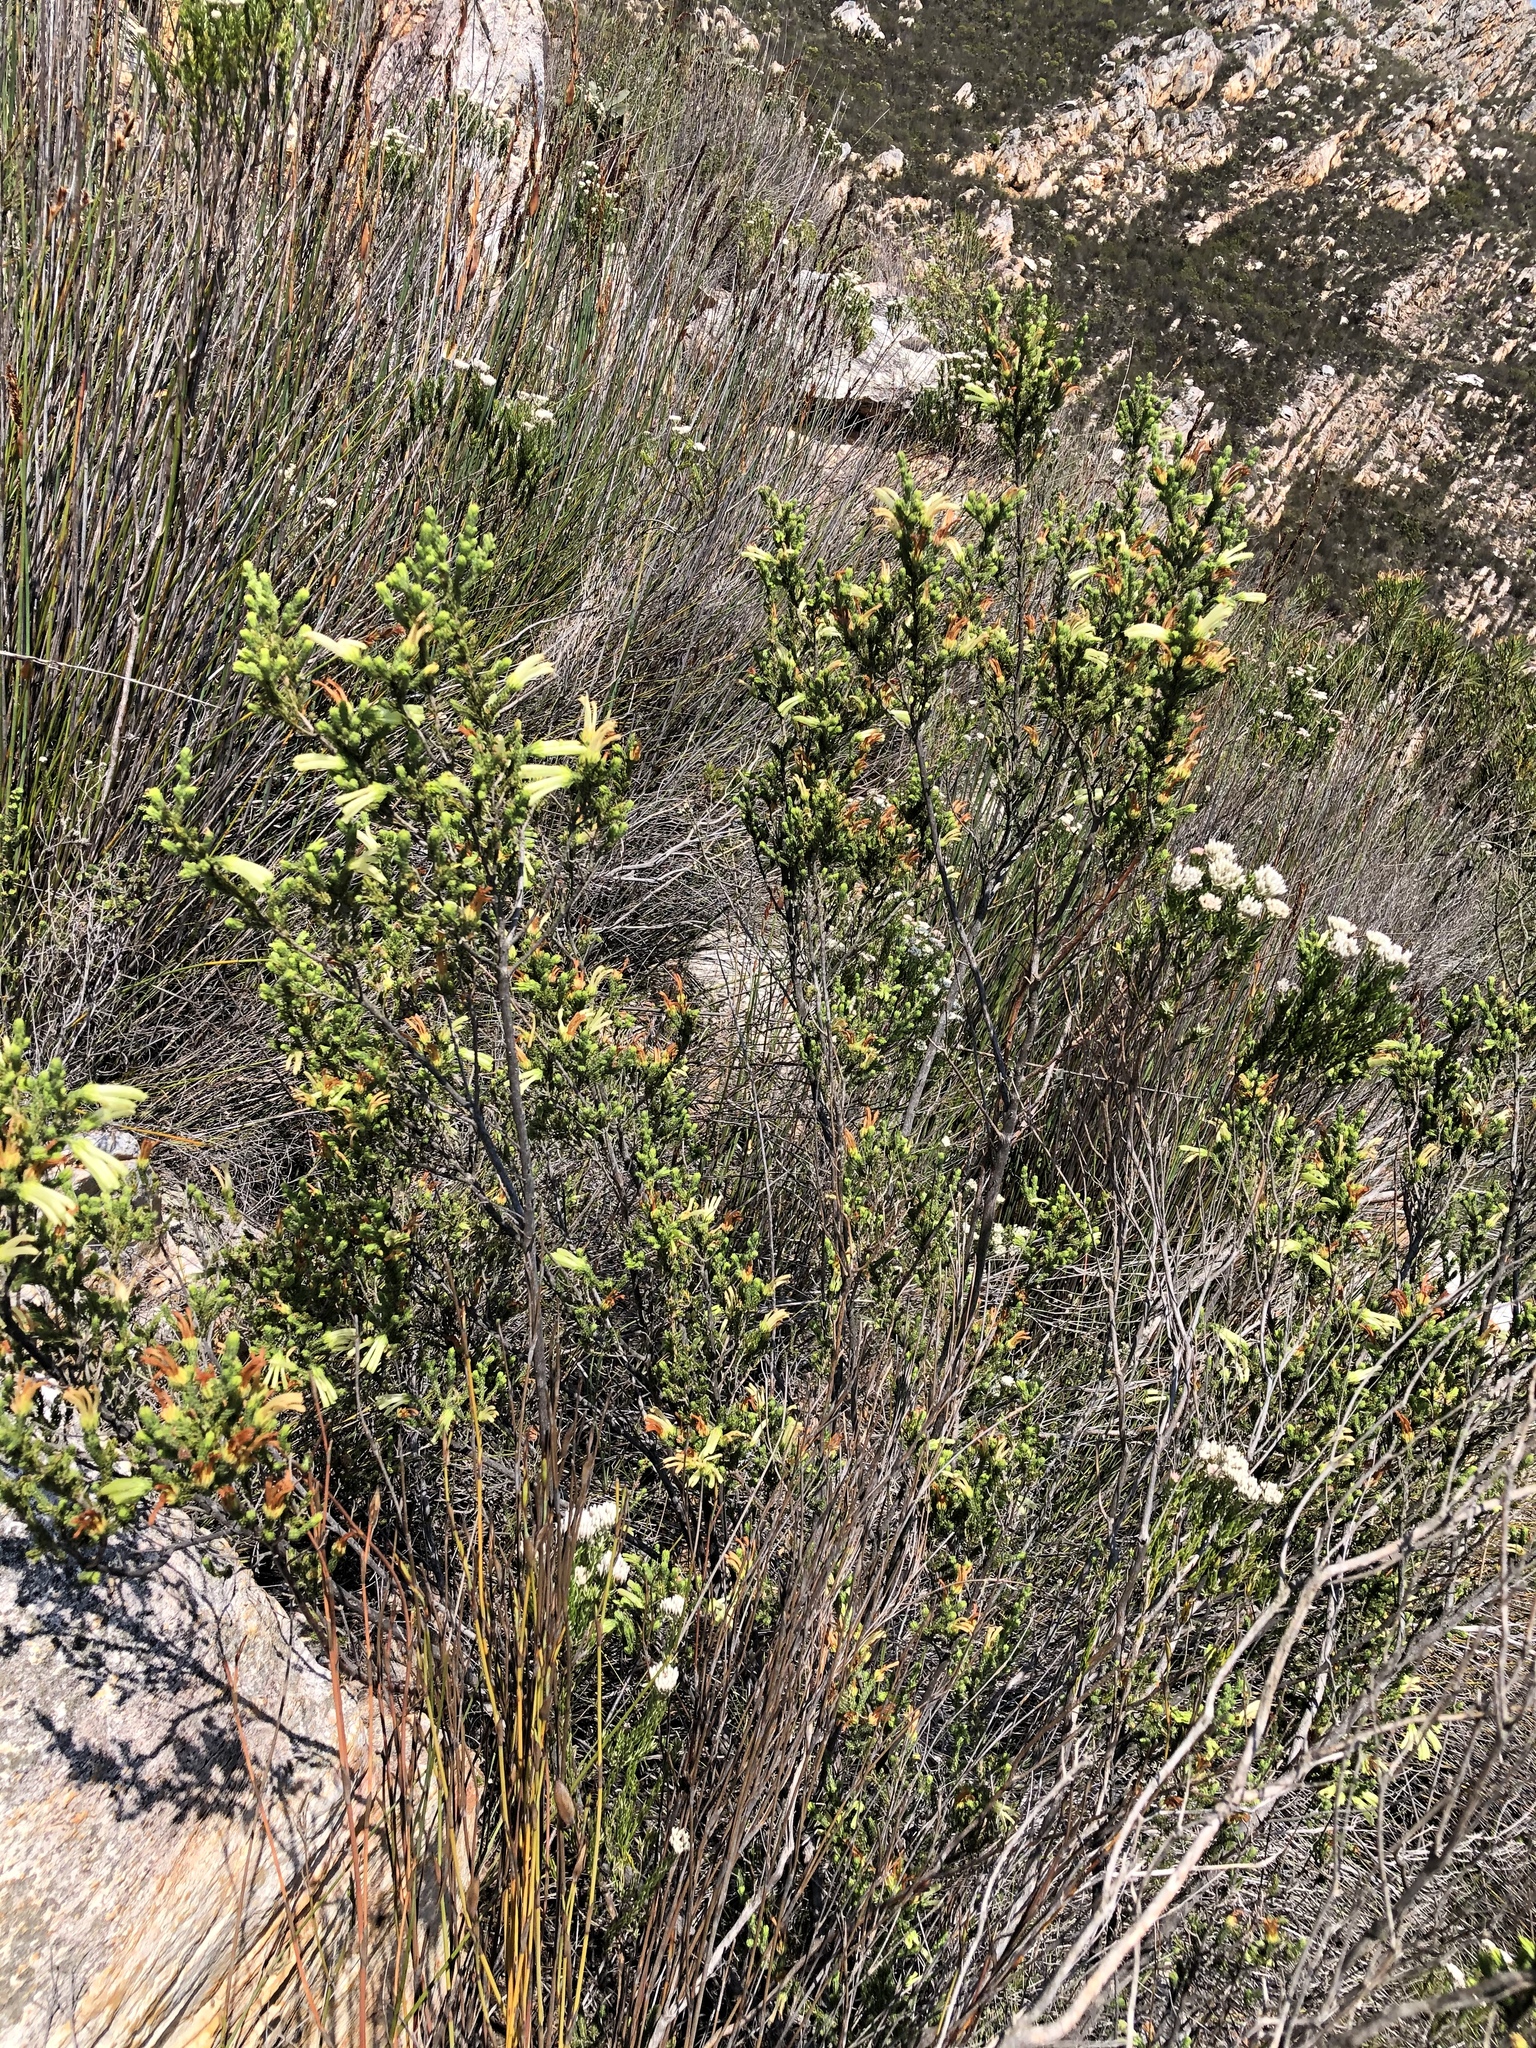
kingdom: Plantae
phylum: Tracheophyta
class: Magnoliopsida
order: Ericales
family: Ericaceae
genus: Erica
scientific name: Erica unicolor
